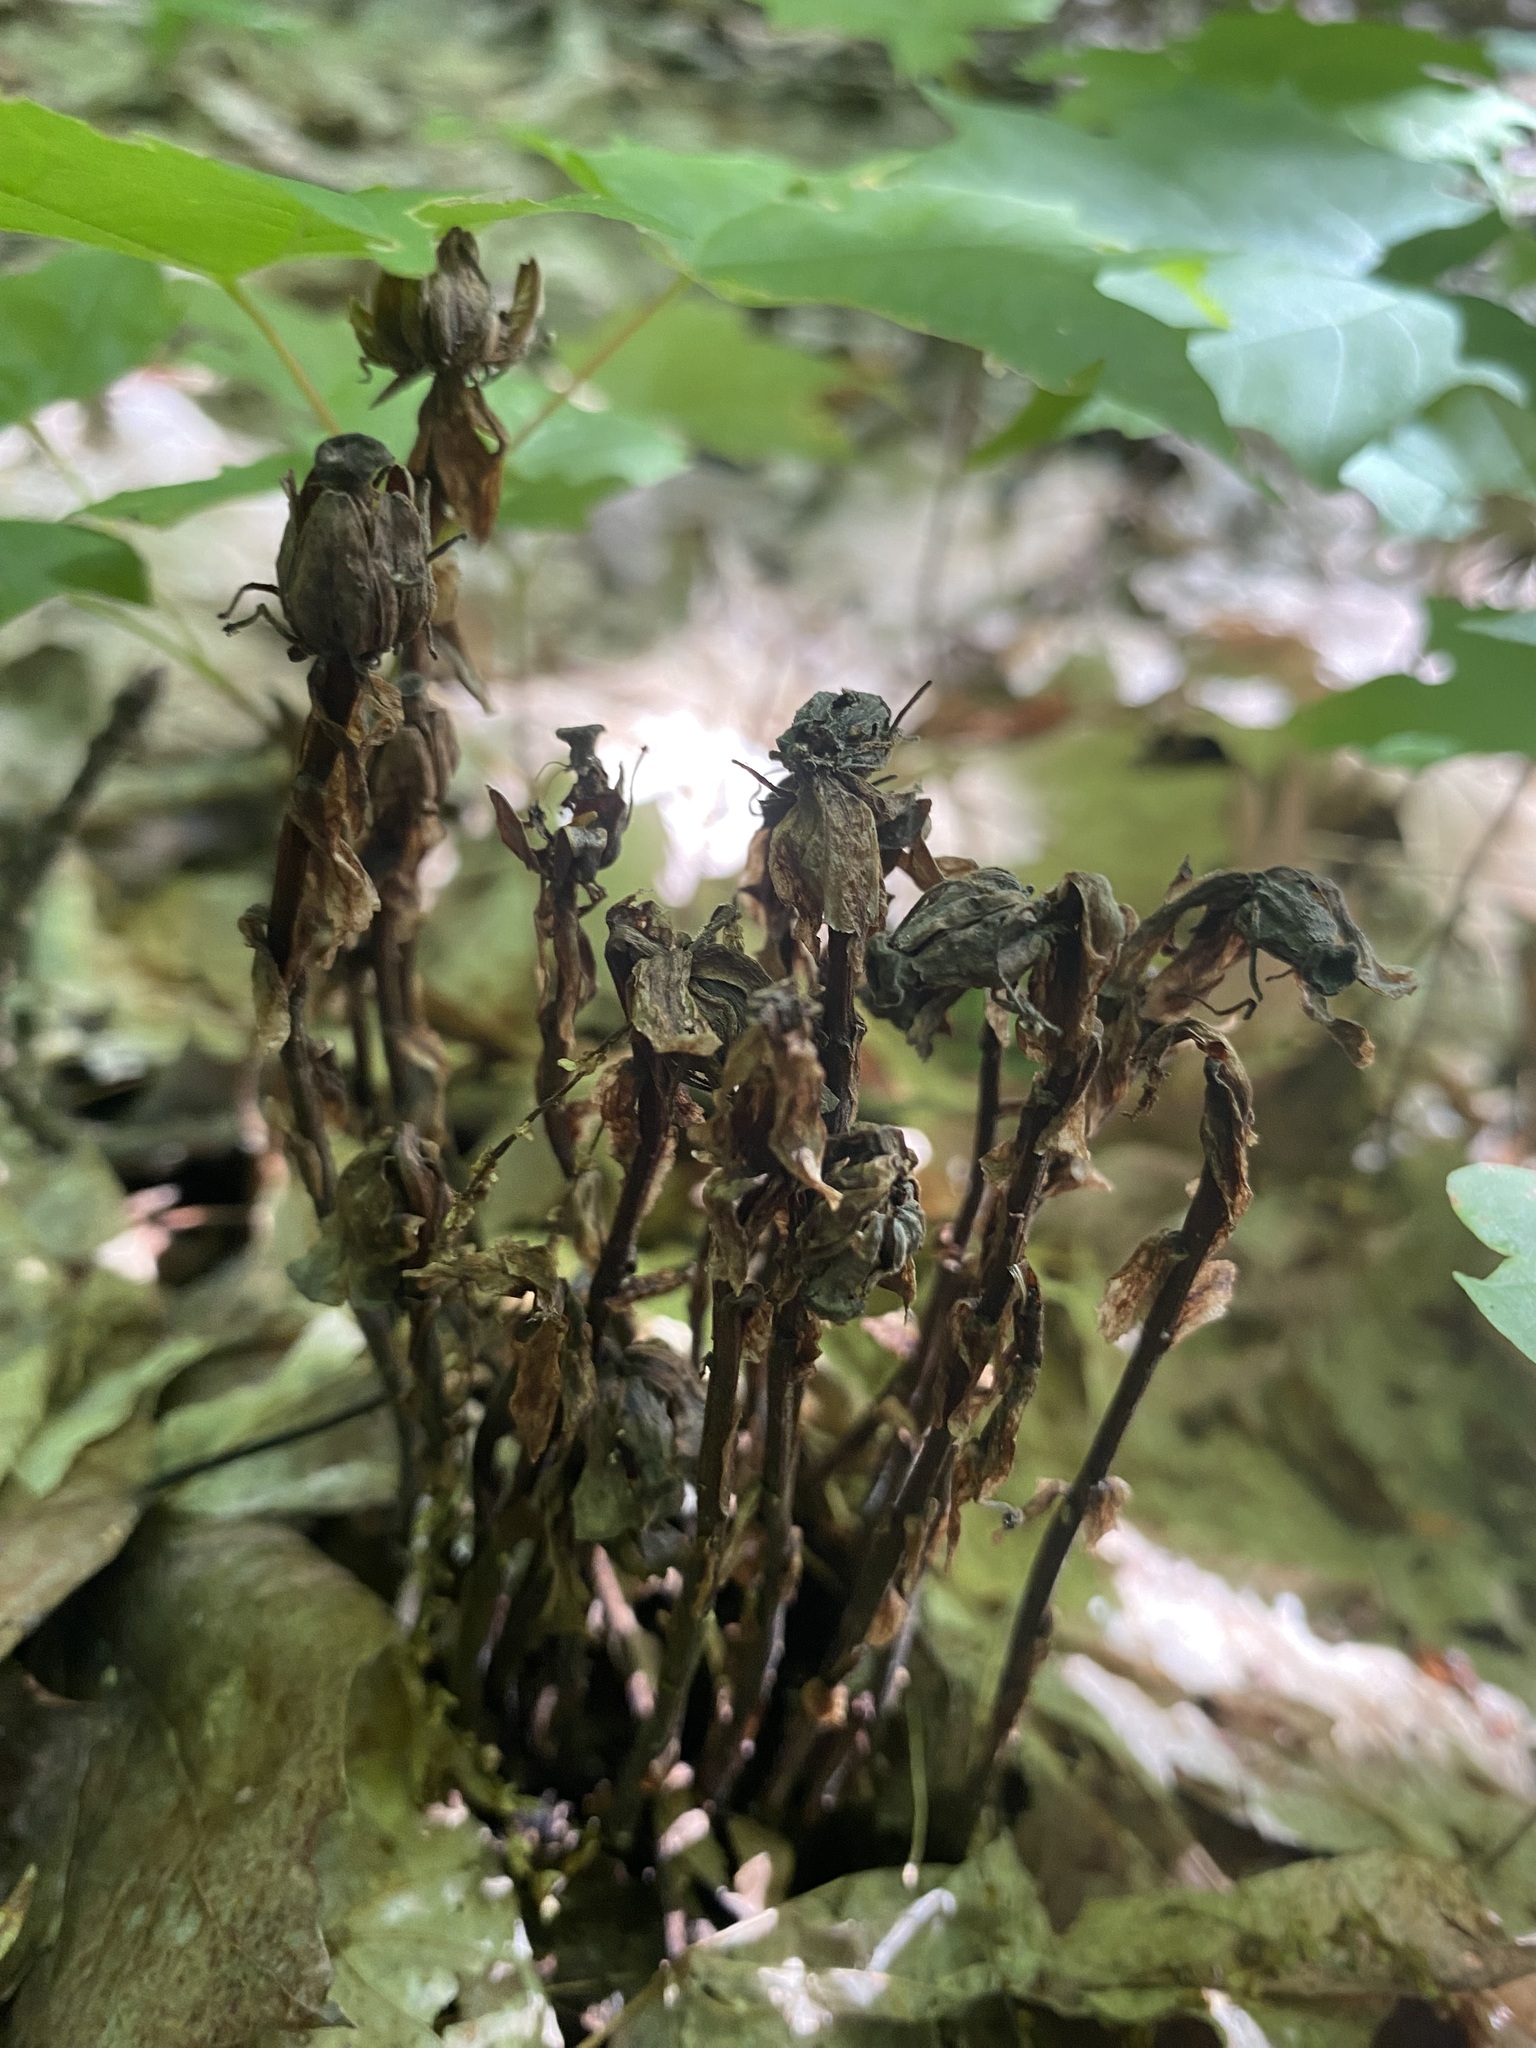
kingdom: Plantae
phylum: Tracheophyta
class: Magnoliopsida
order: Ericales
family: Ericaceae
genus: Monotropa
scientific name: Monotropa uniflora
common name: Convulsion root
